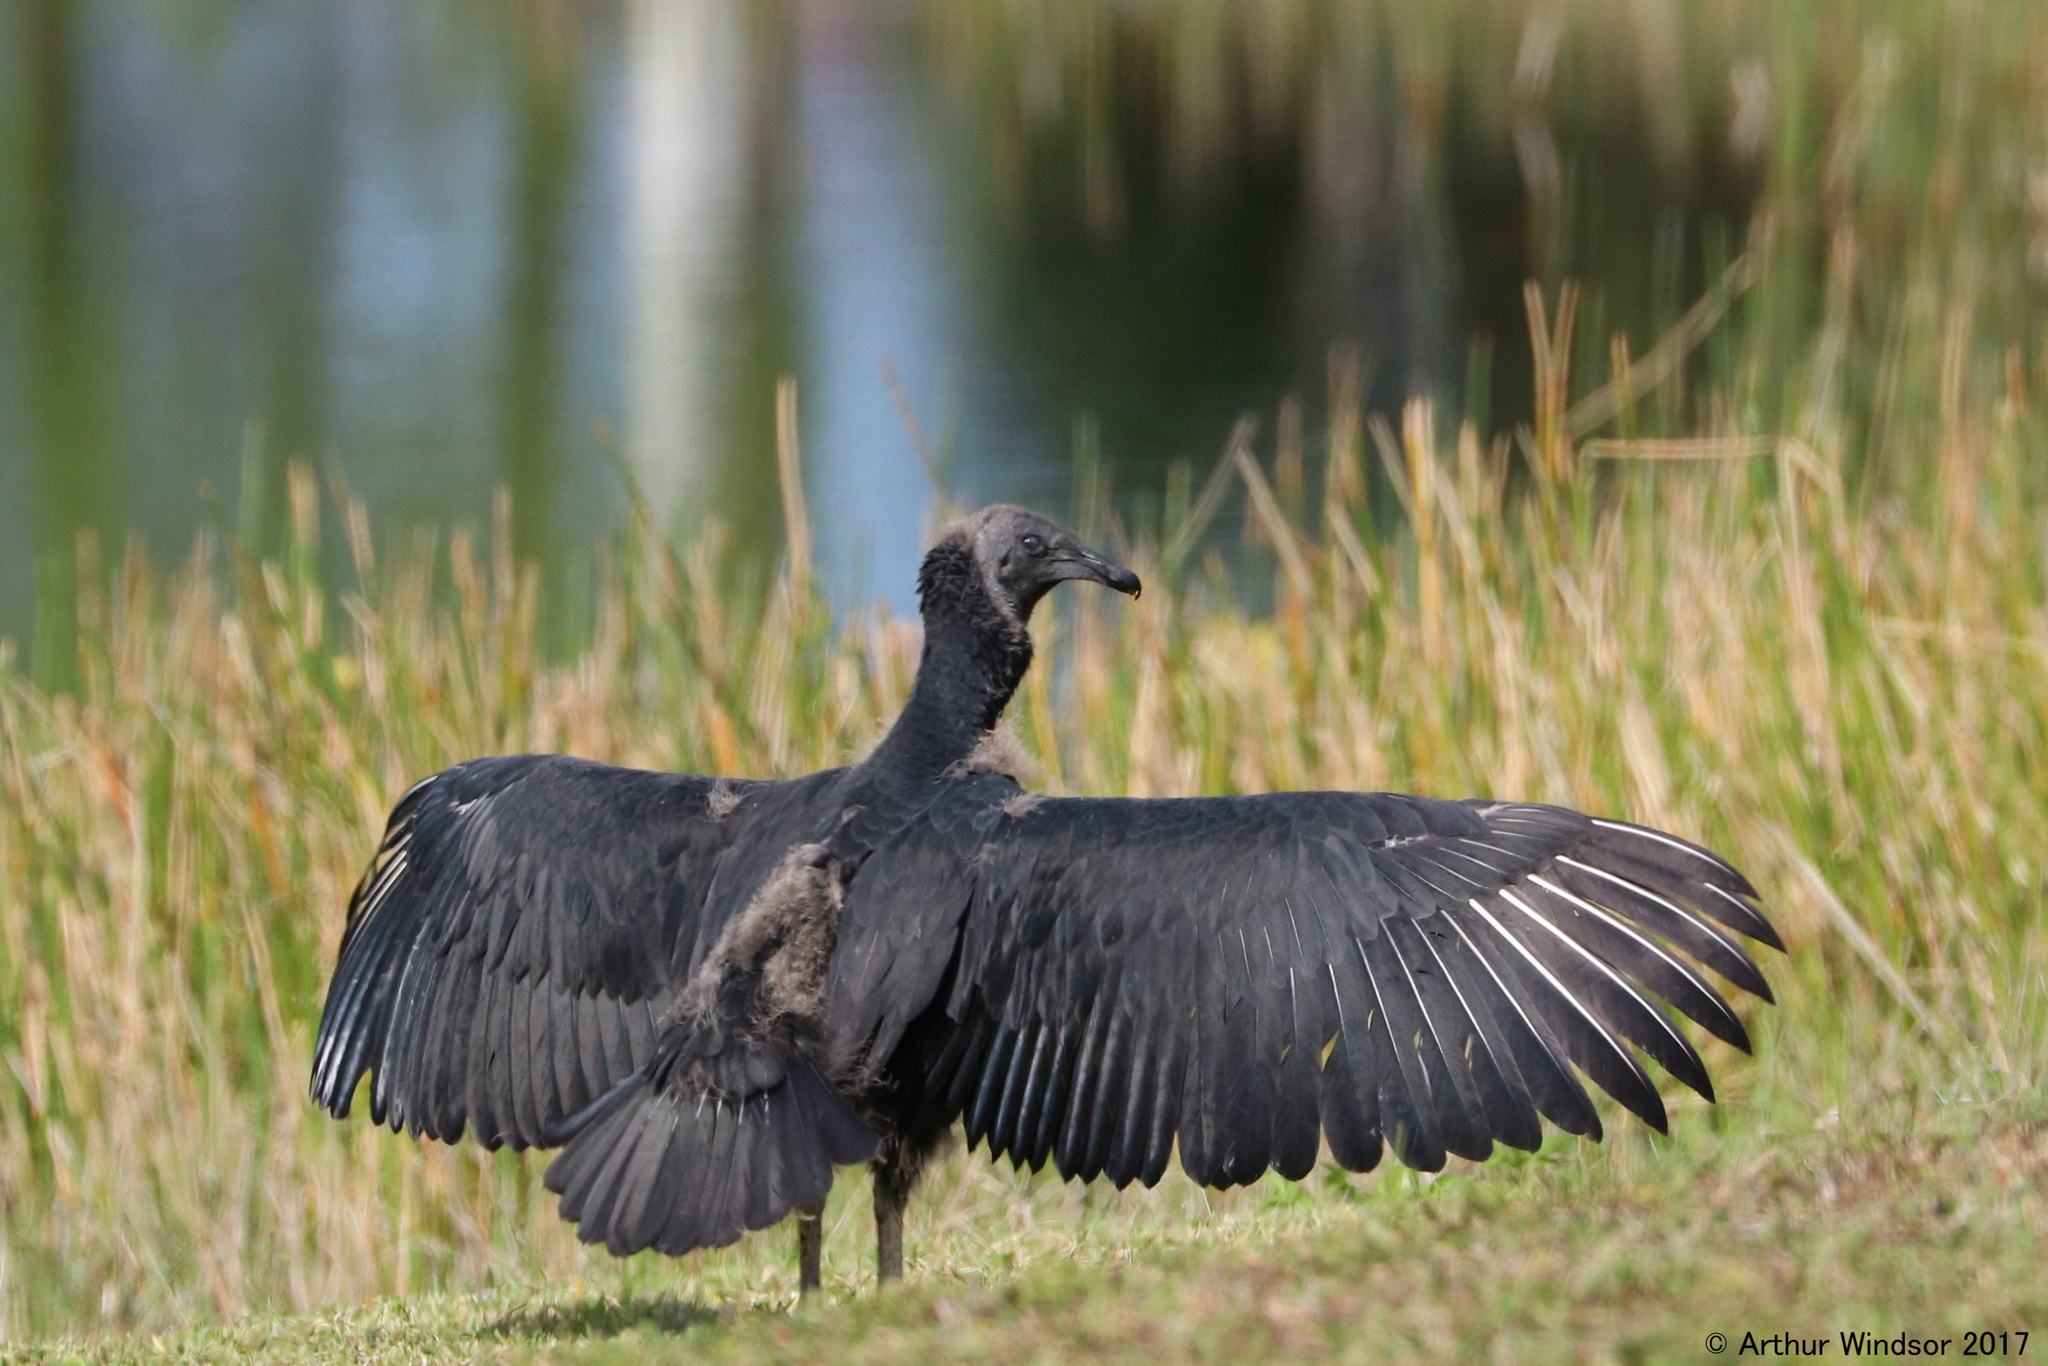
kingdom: Animalia
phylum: Chordata
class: Aves
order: Accipitriformes
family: Cathartidae
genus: Coragyps
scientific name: Coragyps atratus
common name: Black vulture
